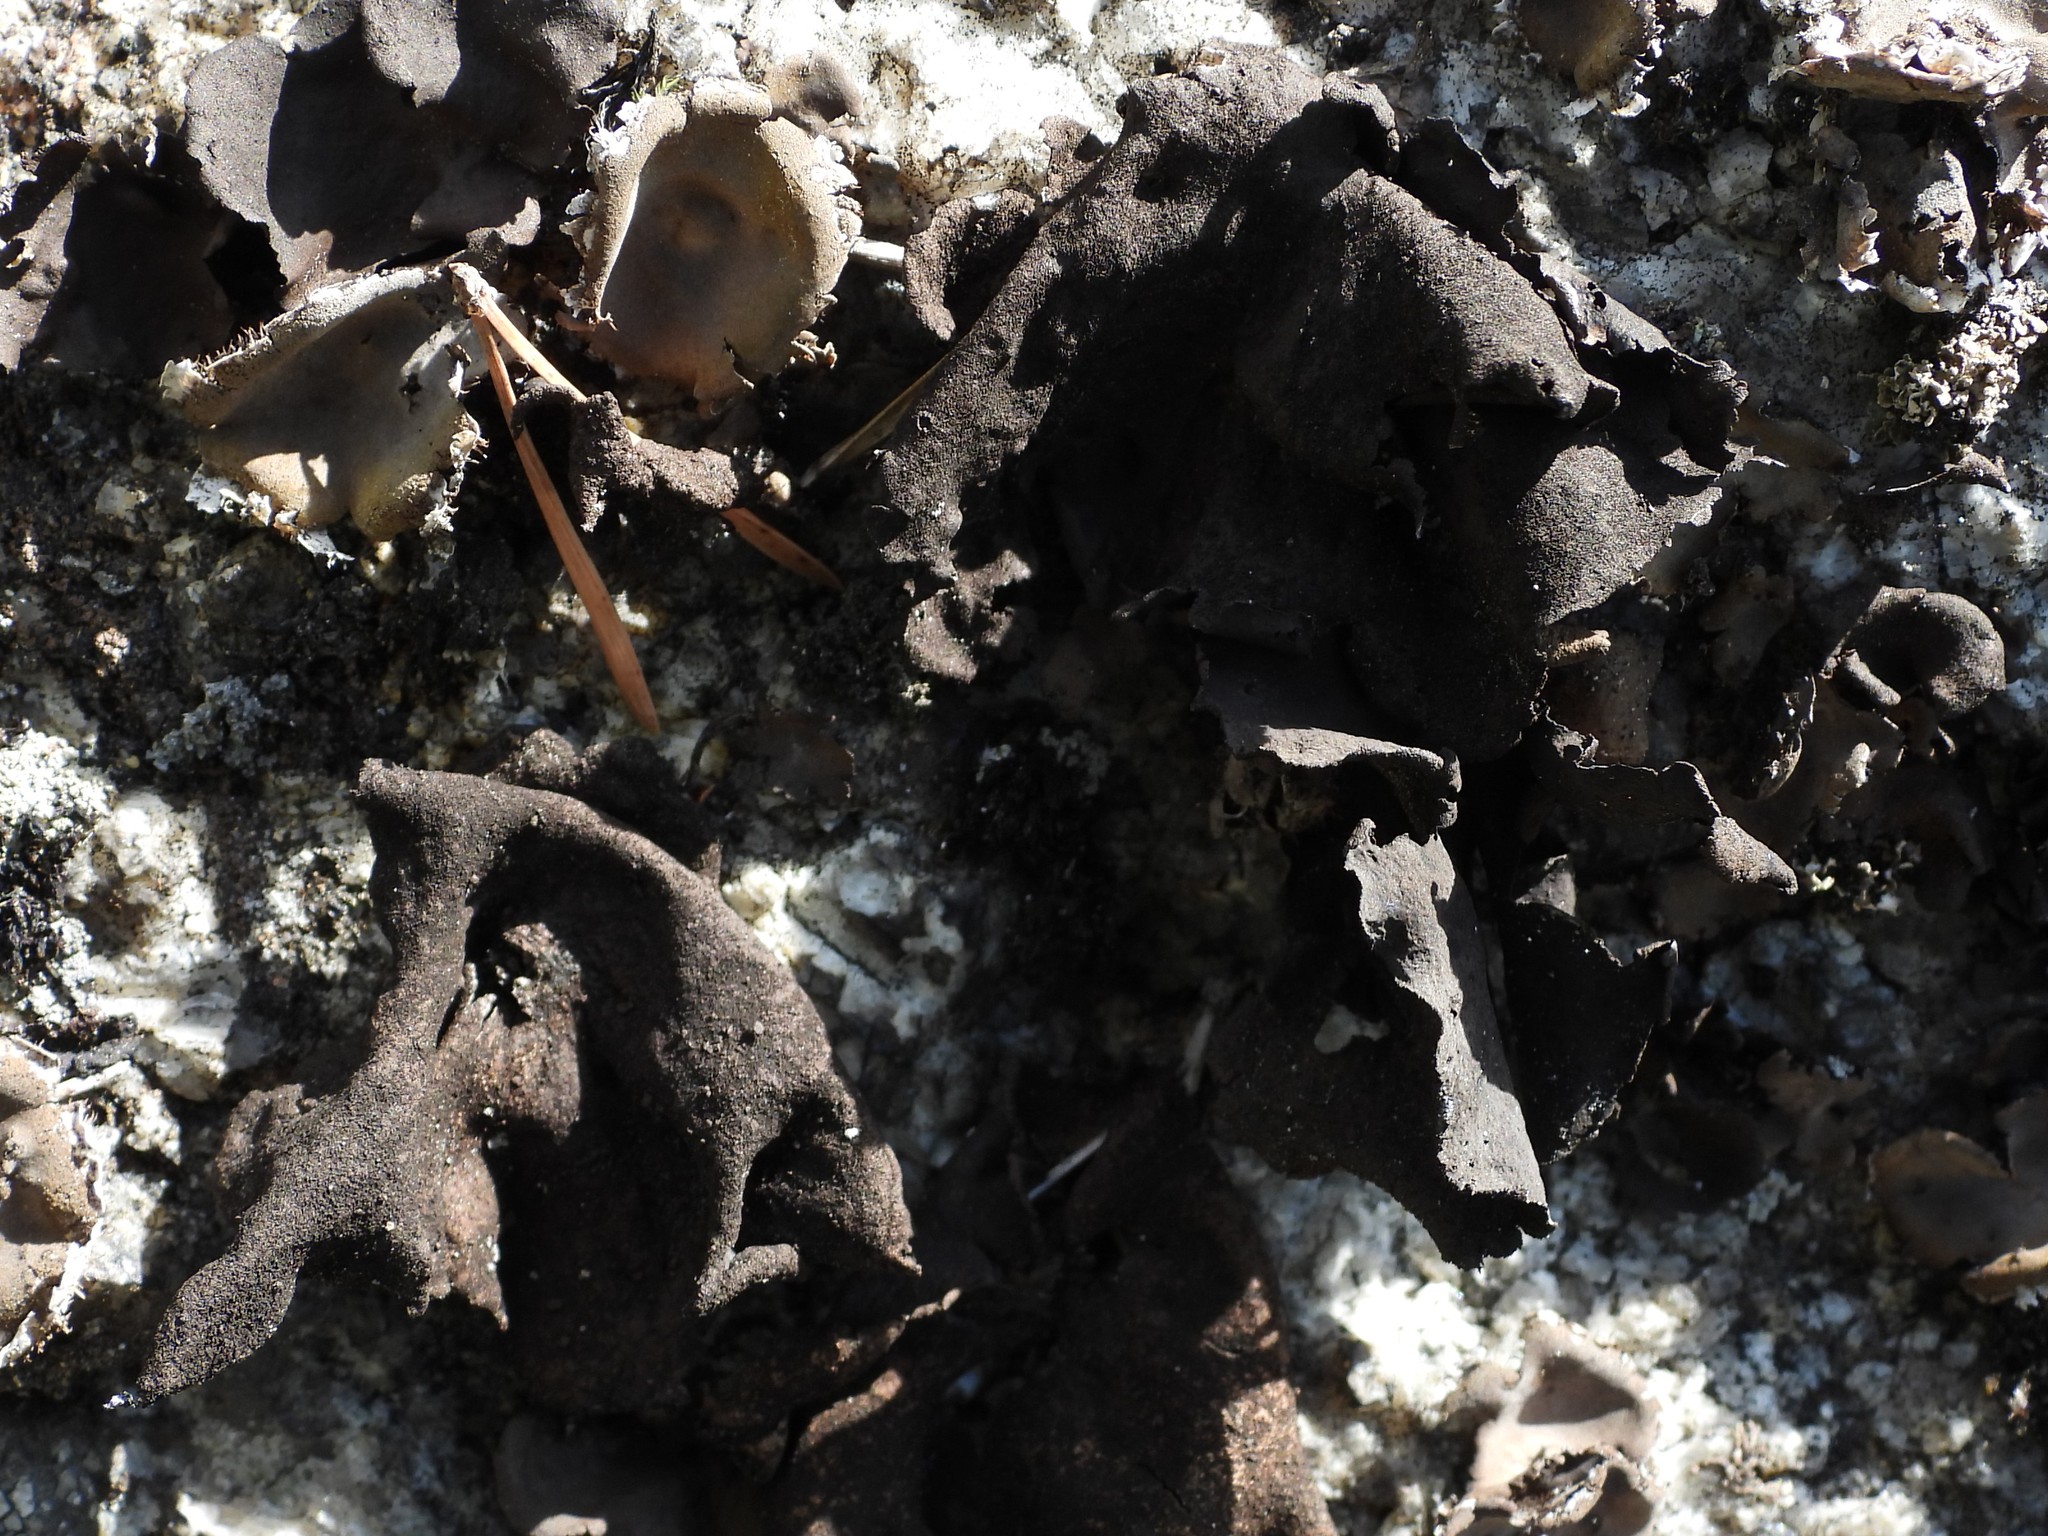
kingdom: Fungi
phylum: Ascomycota
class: Lecanoromycetes
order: Umbilicariales
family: Umbilicariaceae
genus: Umbilicaria
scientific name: Umbilicaria deusta
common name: Peppered rock tripe
